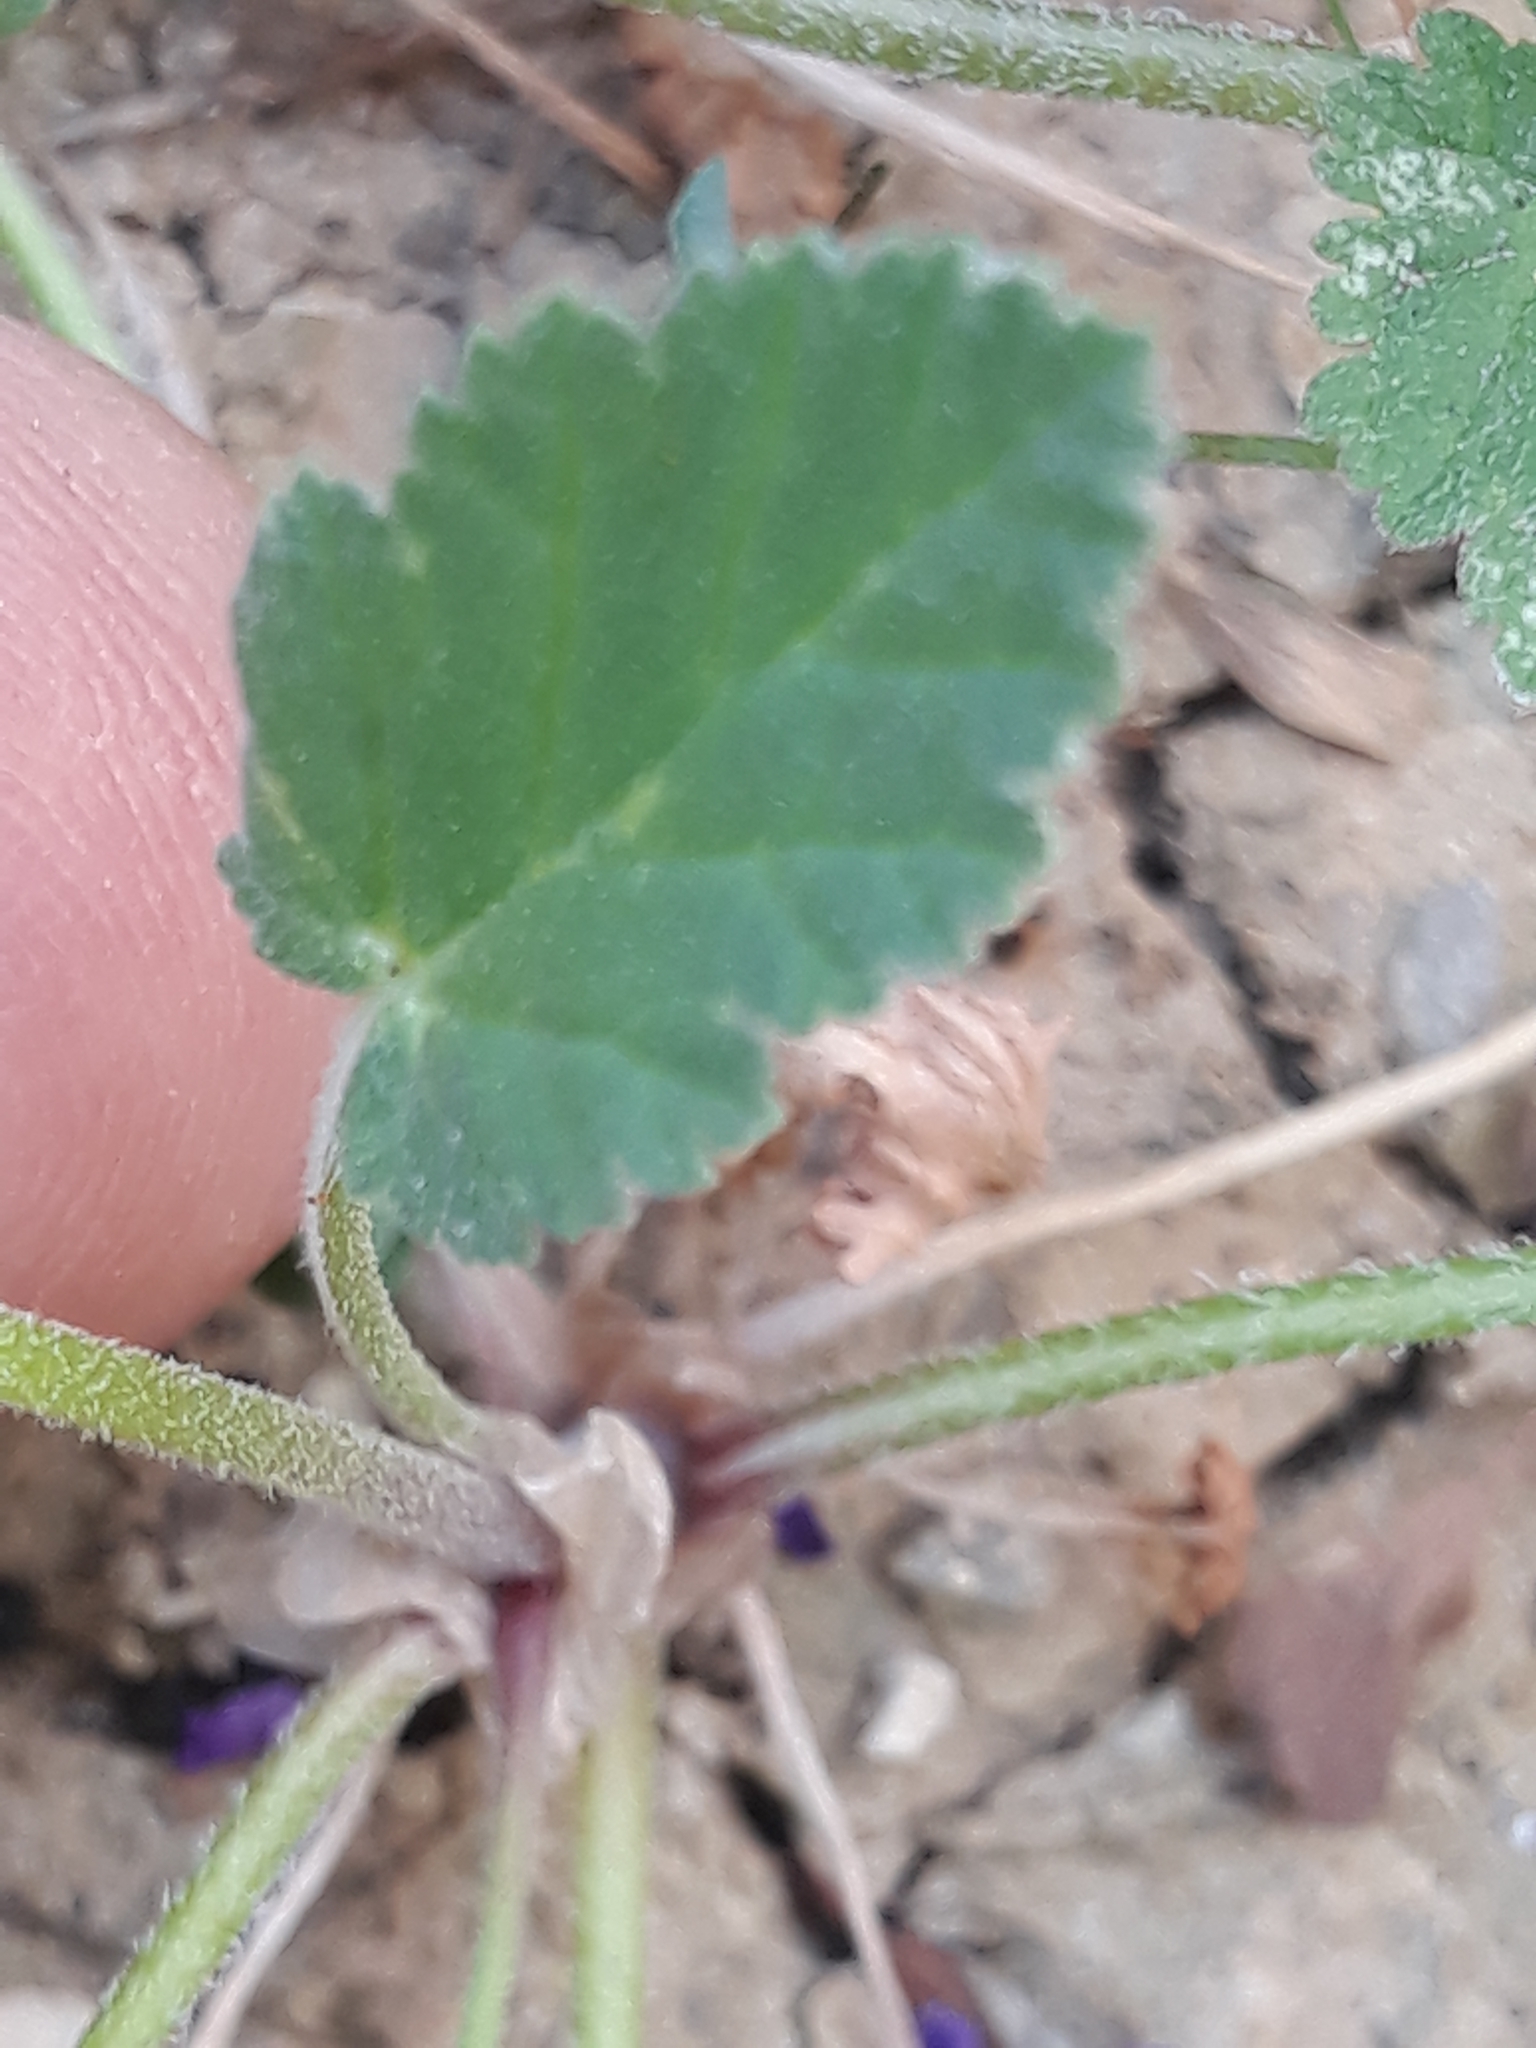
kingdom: Plantae
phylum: Tracheophyta
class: Magnoliopsida
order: Geraniales
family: Geraniaceae
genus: Erodium
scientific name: Erodium malacoides
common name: Soft stork's-bill
